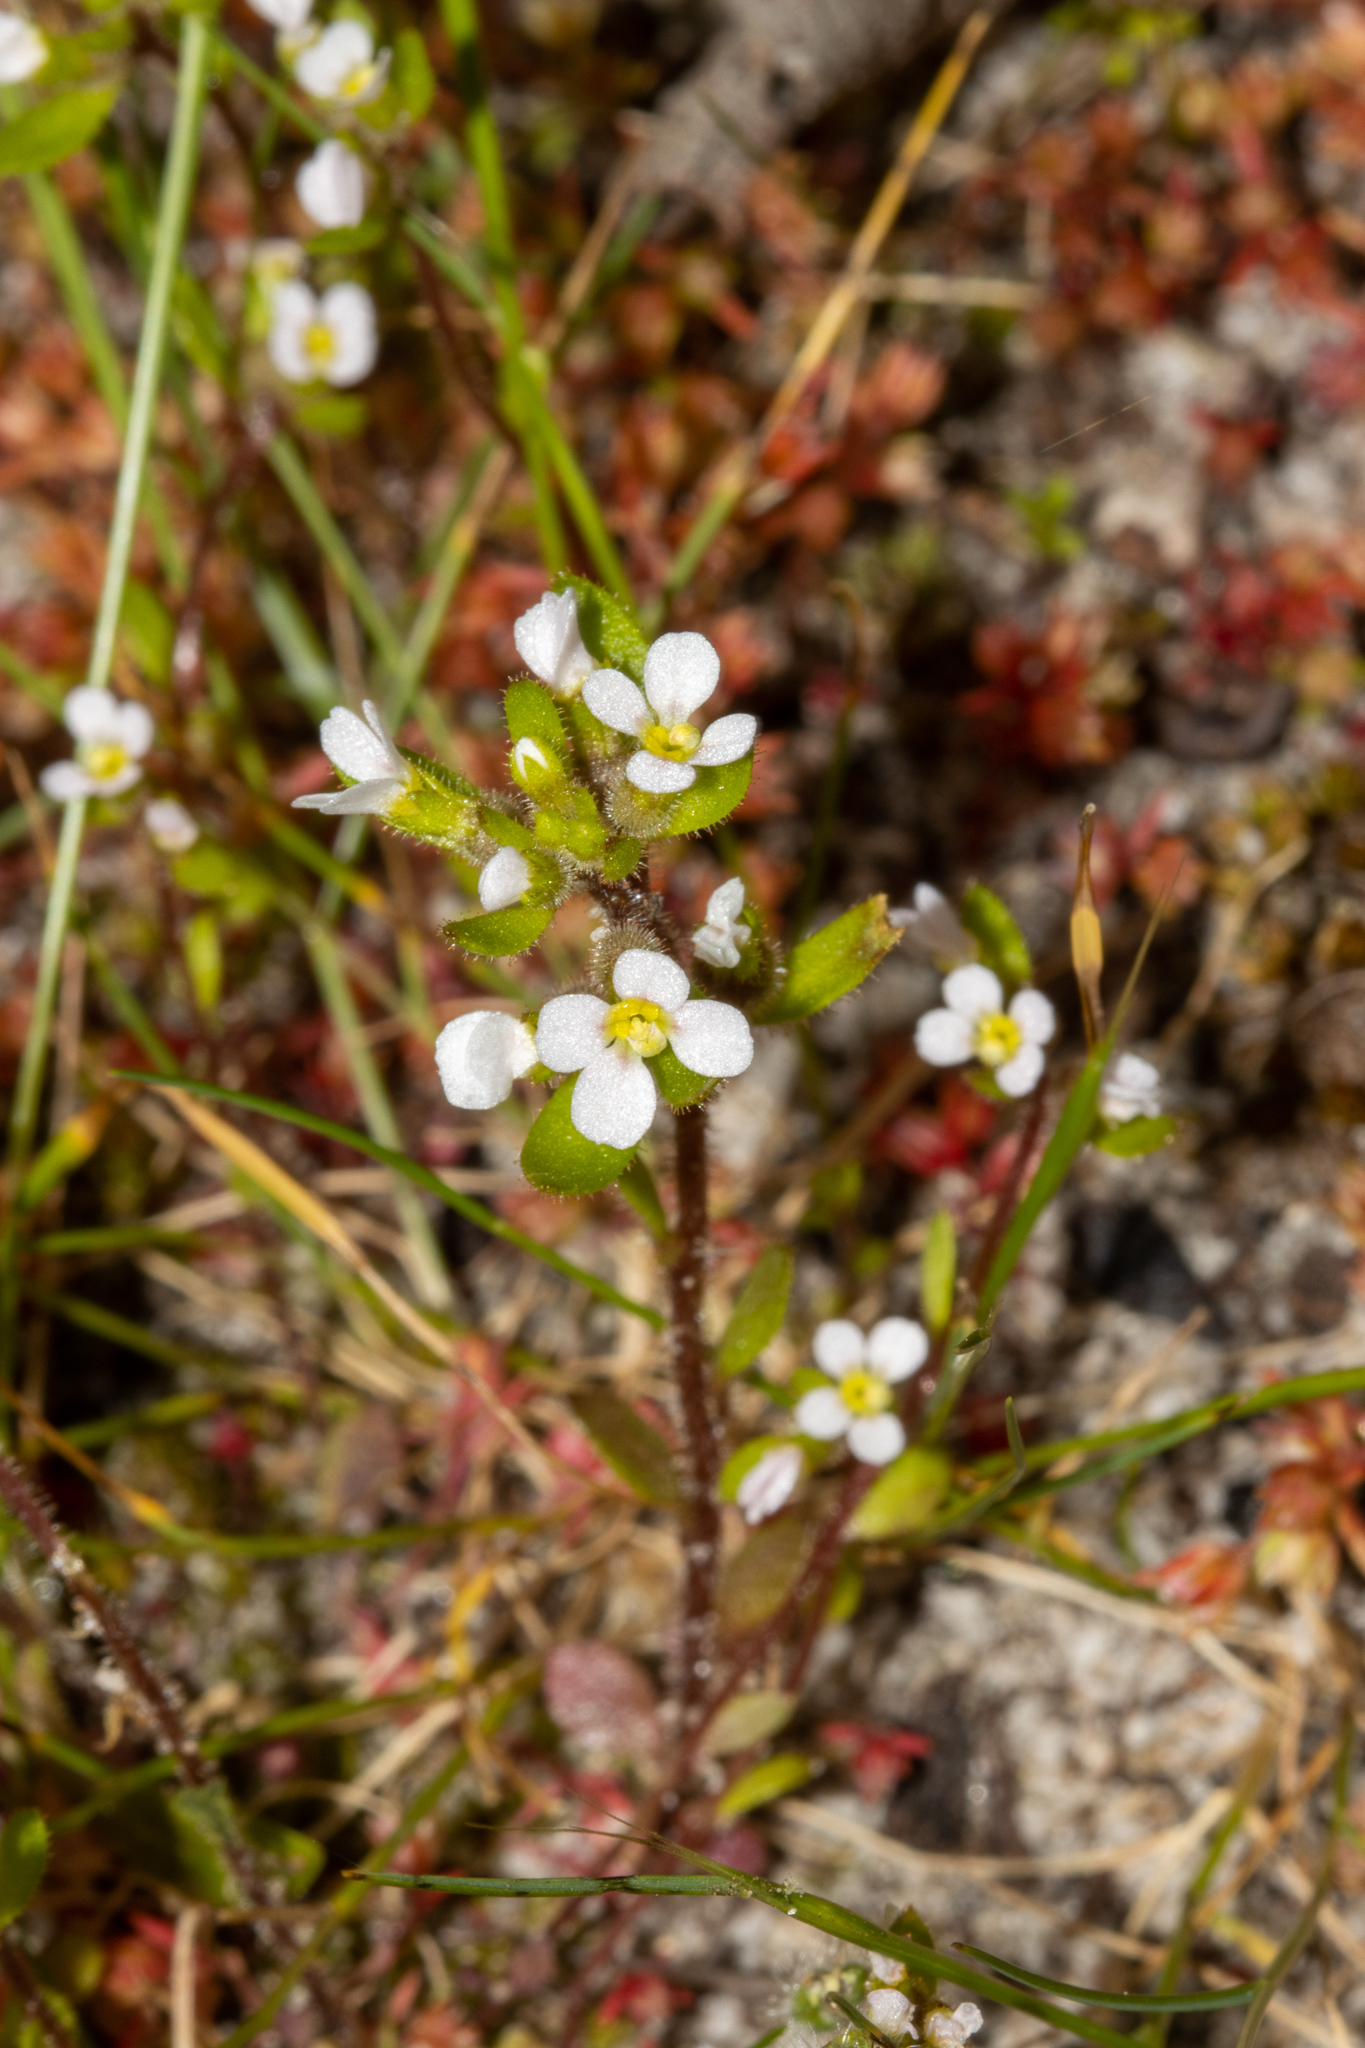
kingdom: Plantae
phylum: Tracheophyta
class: Magnoliopsida
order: Asterales
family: Stylidiaceae
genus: Levenhookia
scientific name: Levenhookia dubia
